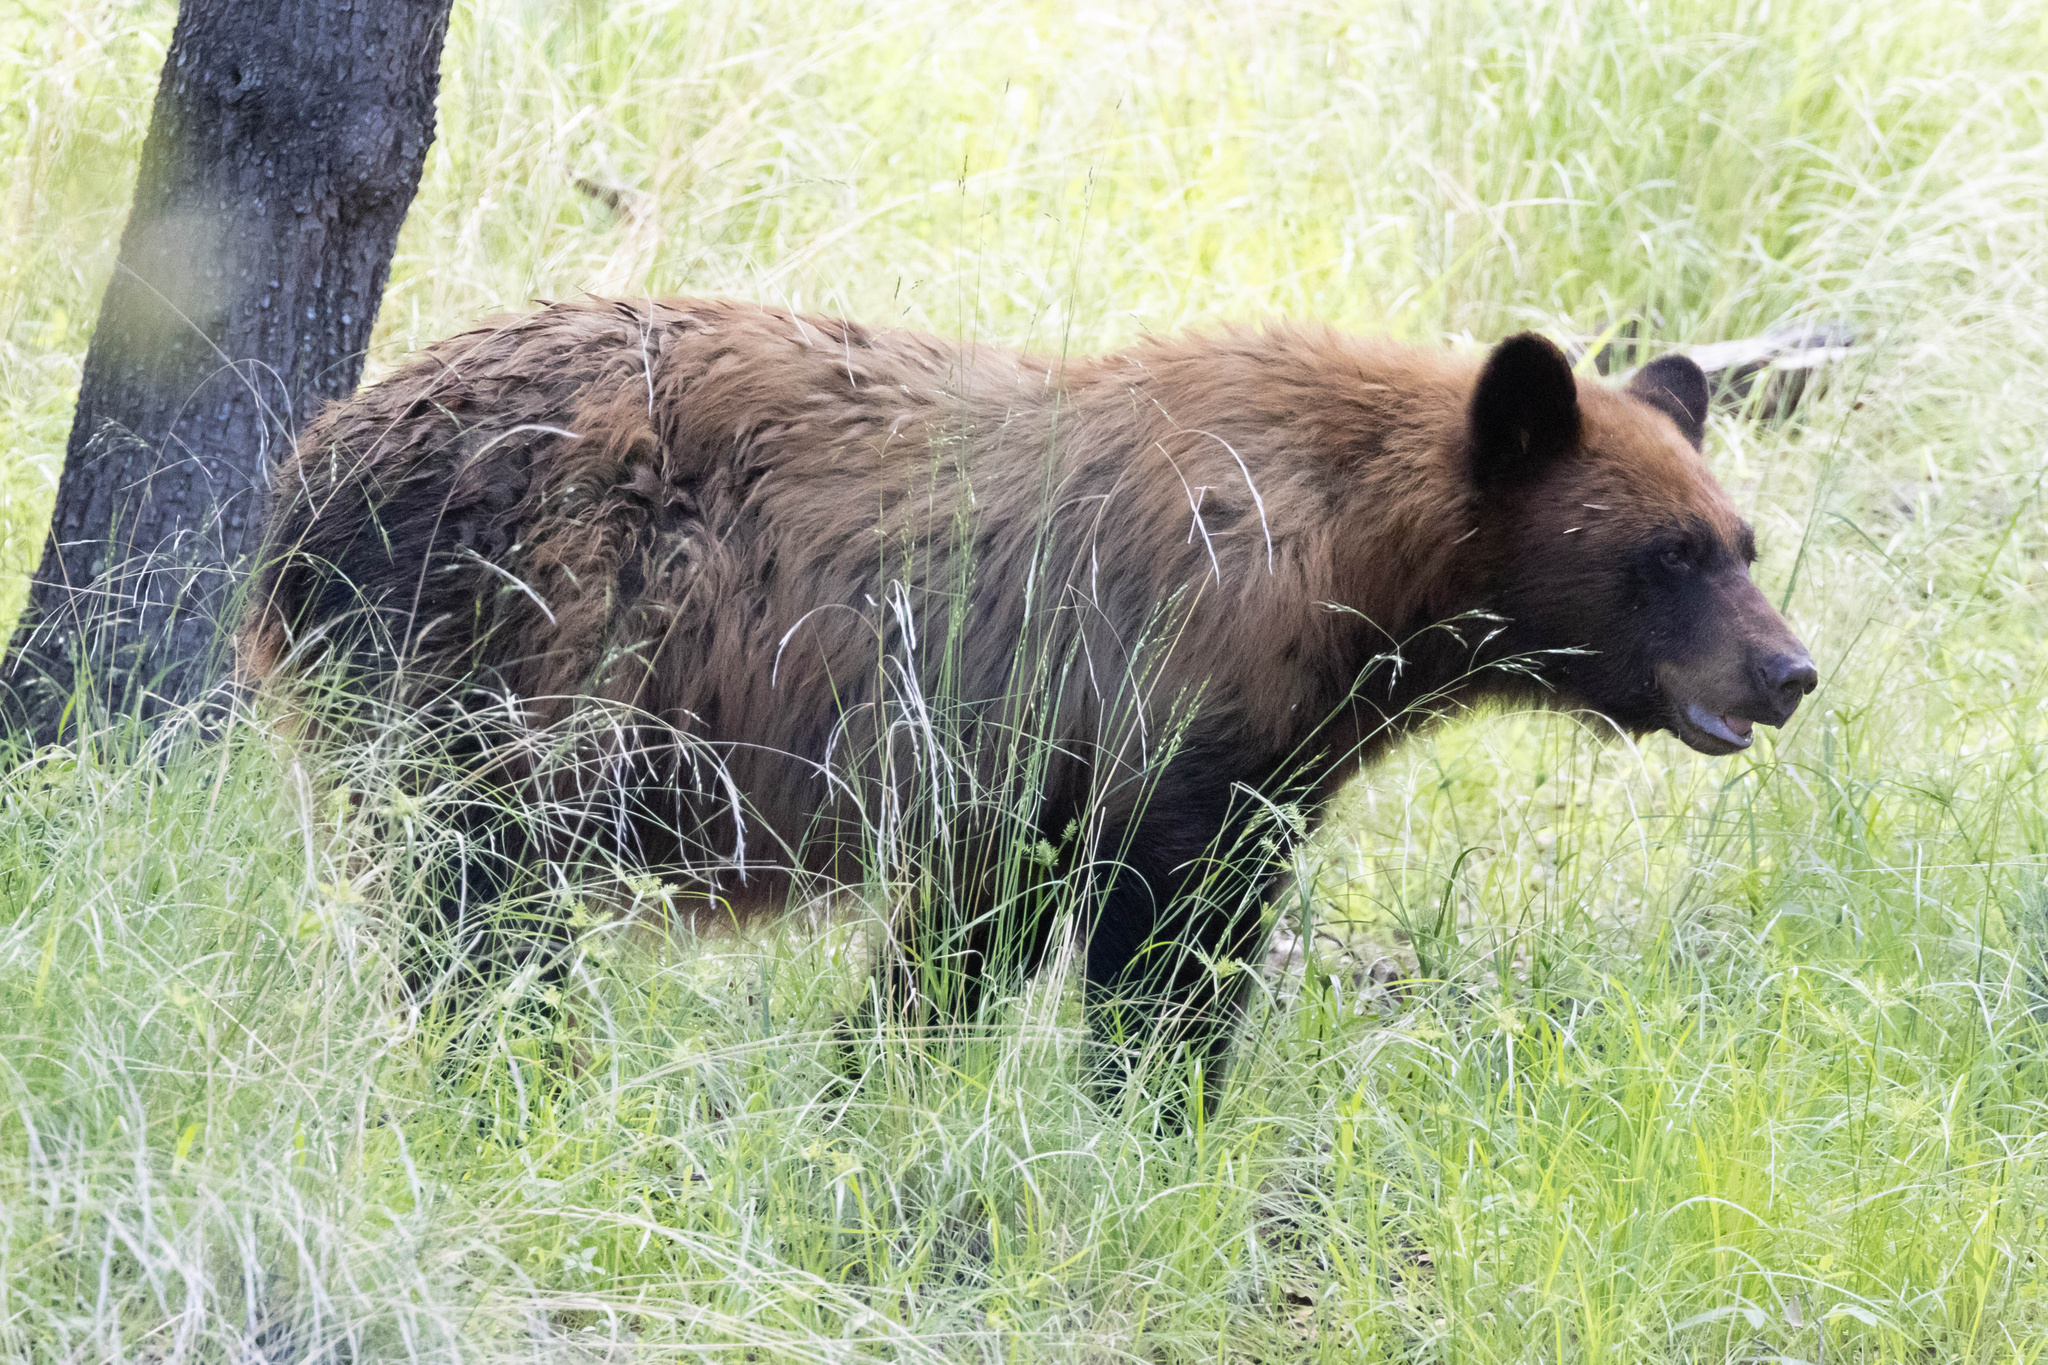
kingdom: Animalia
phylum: Chordata
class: Mammalia
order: Carnivora
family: Ursidae
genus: Ursus
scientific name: Ursus americanus
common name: American black bear
